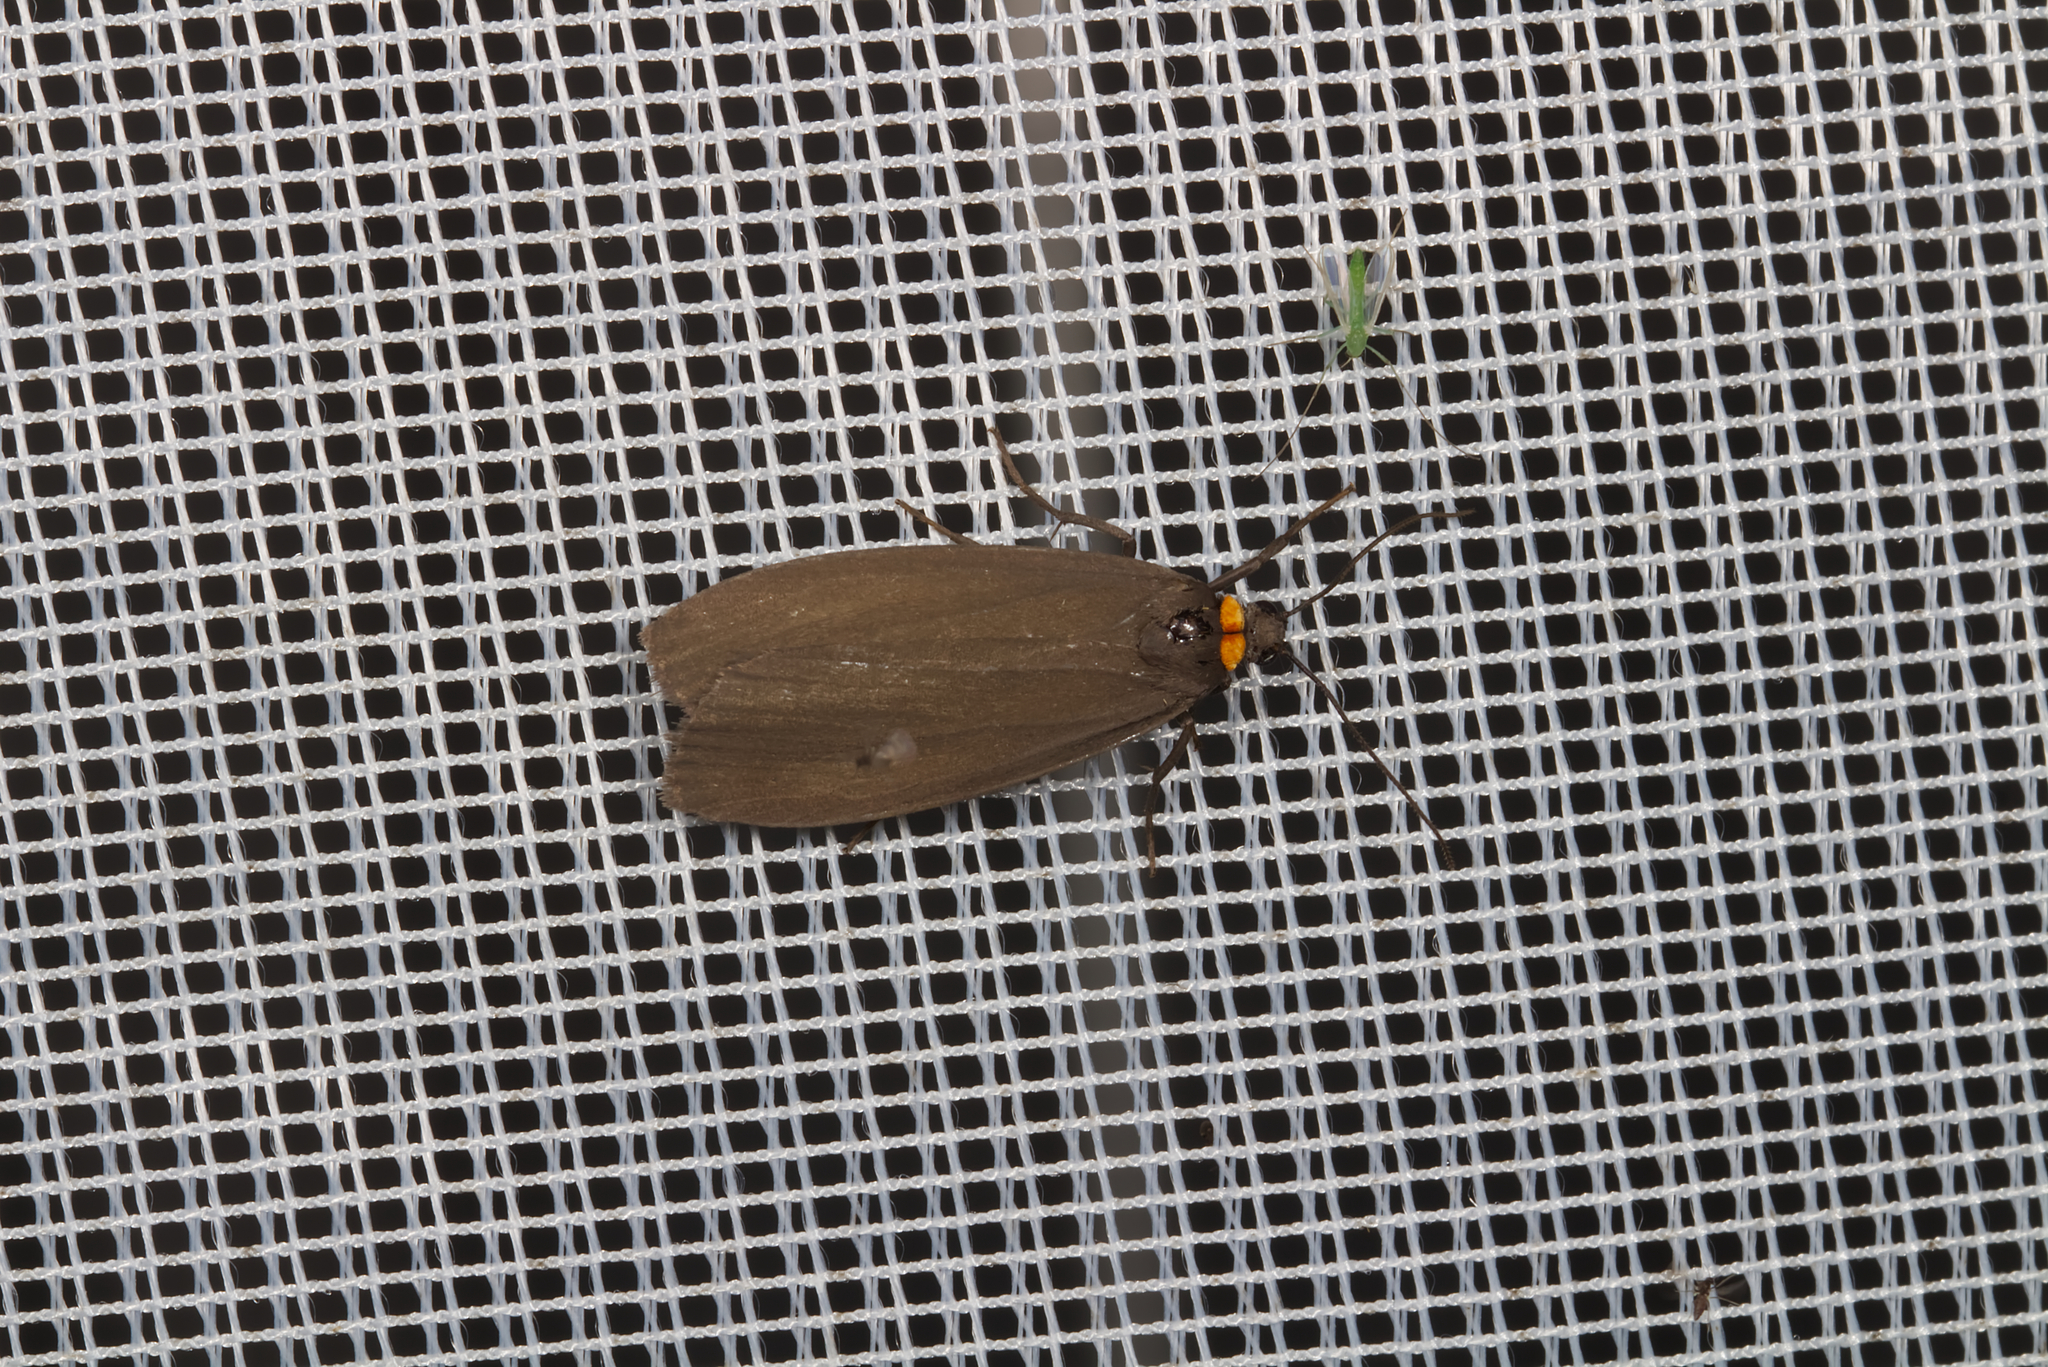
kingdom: Animalia
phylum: Arthropoda
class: Insecta
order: Lepidoptera
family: Erebidae
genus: Atolmis
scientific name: Atolmis rubricollis
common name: Red-necked footman
